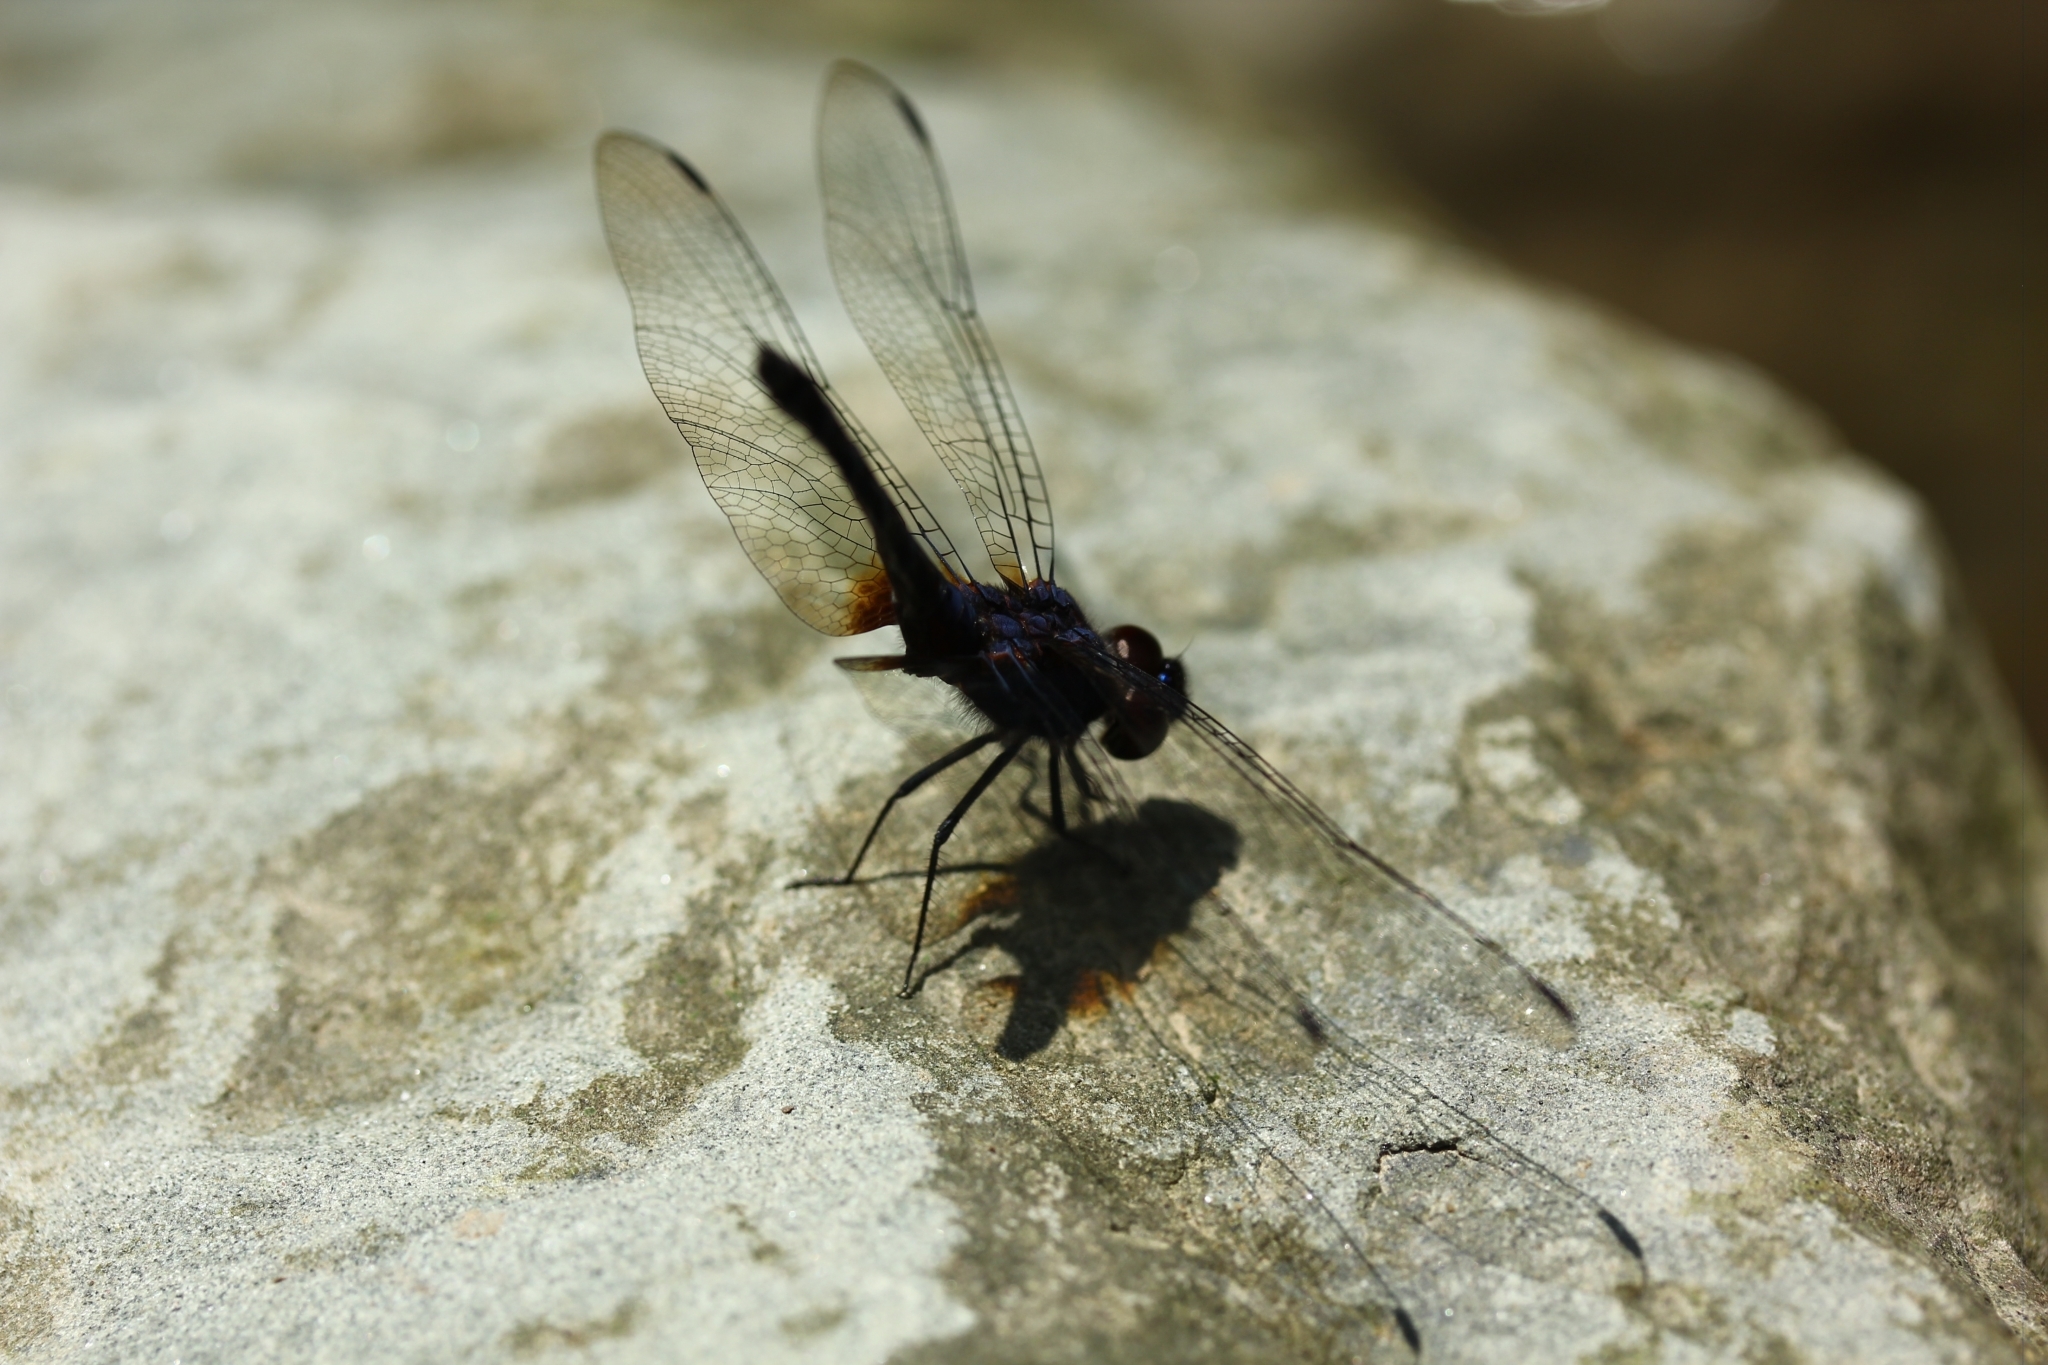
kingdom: Animalia
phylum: Arthropoda
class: Insecta
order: Odonata
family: Libellulidae
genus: Trithemis
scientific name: Trithemis festiva
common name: Indigo dropwing
